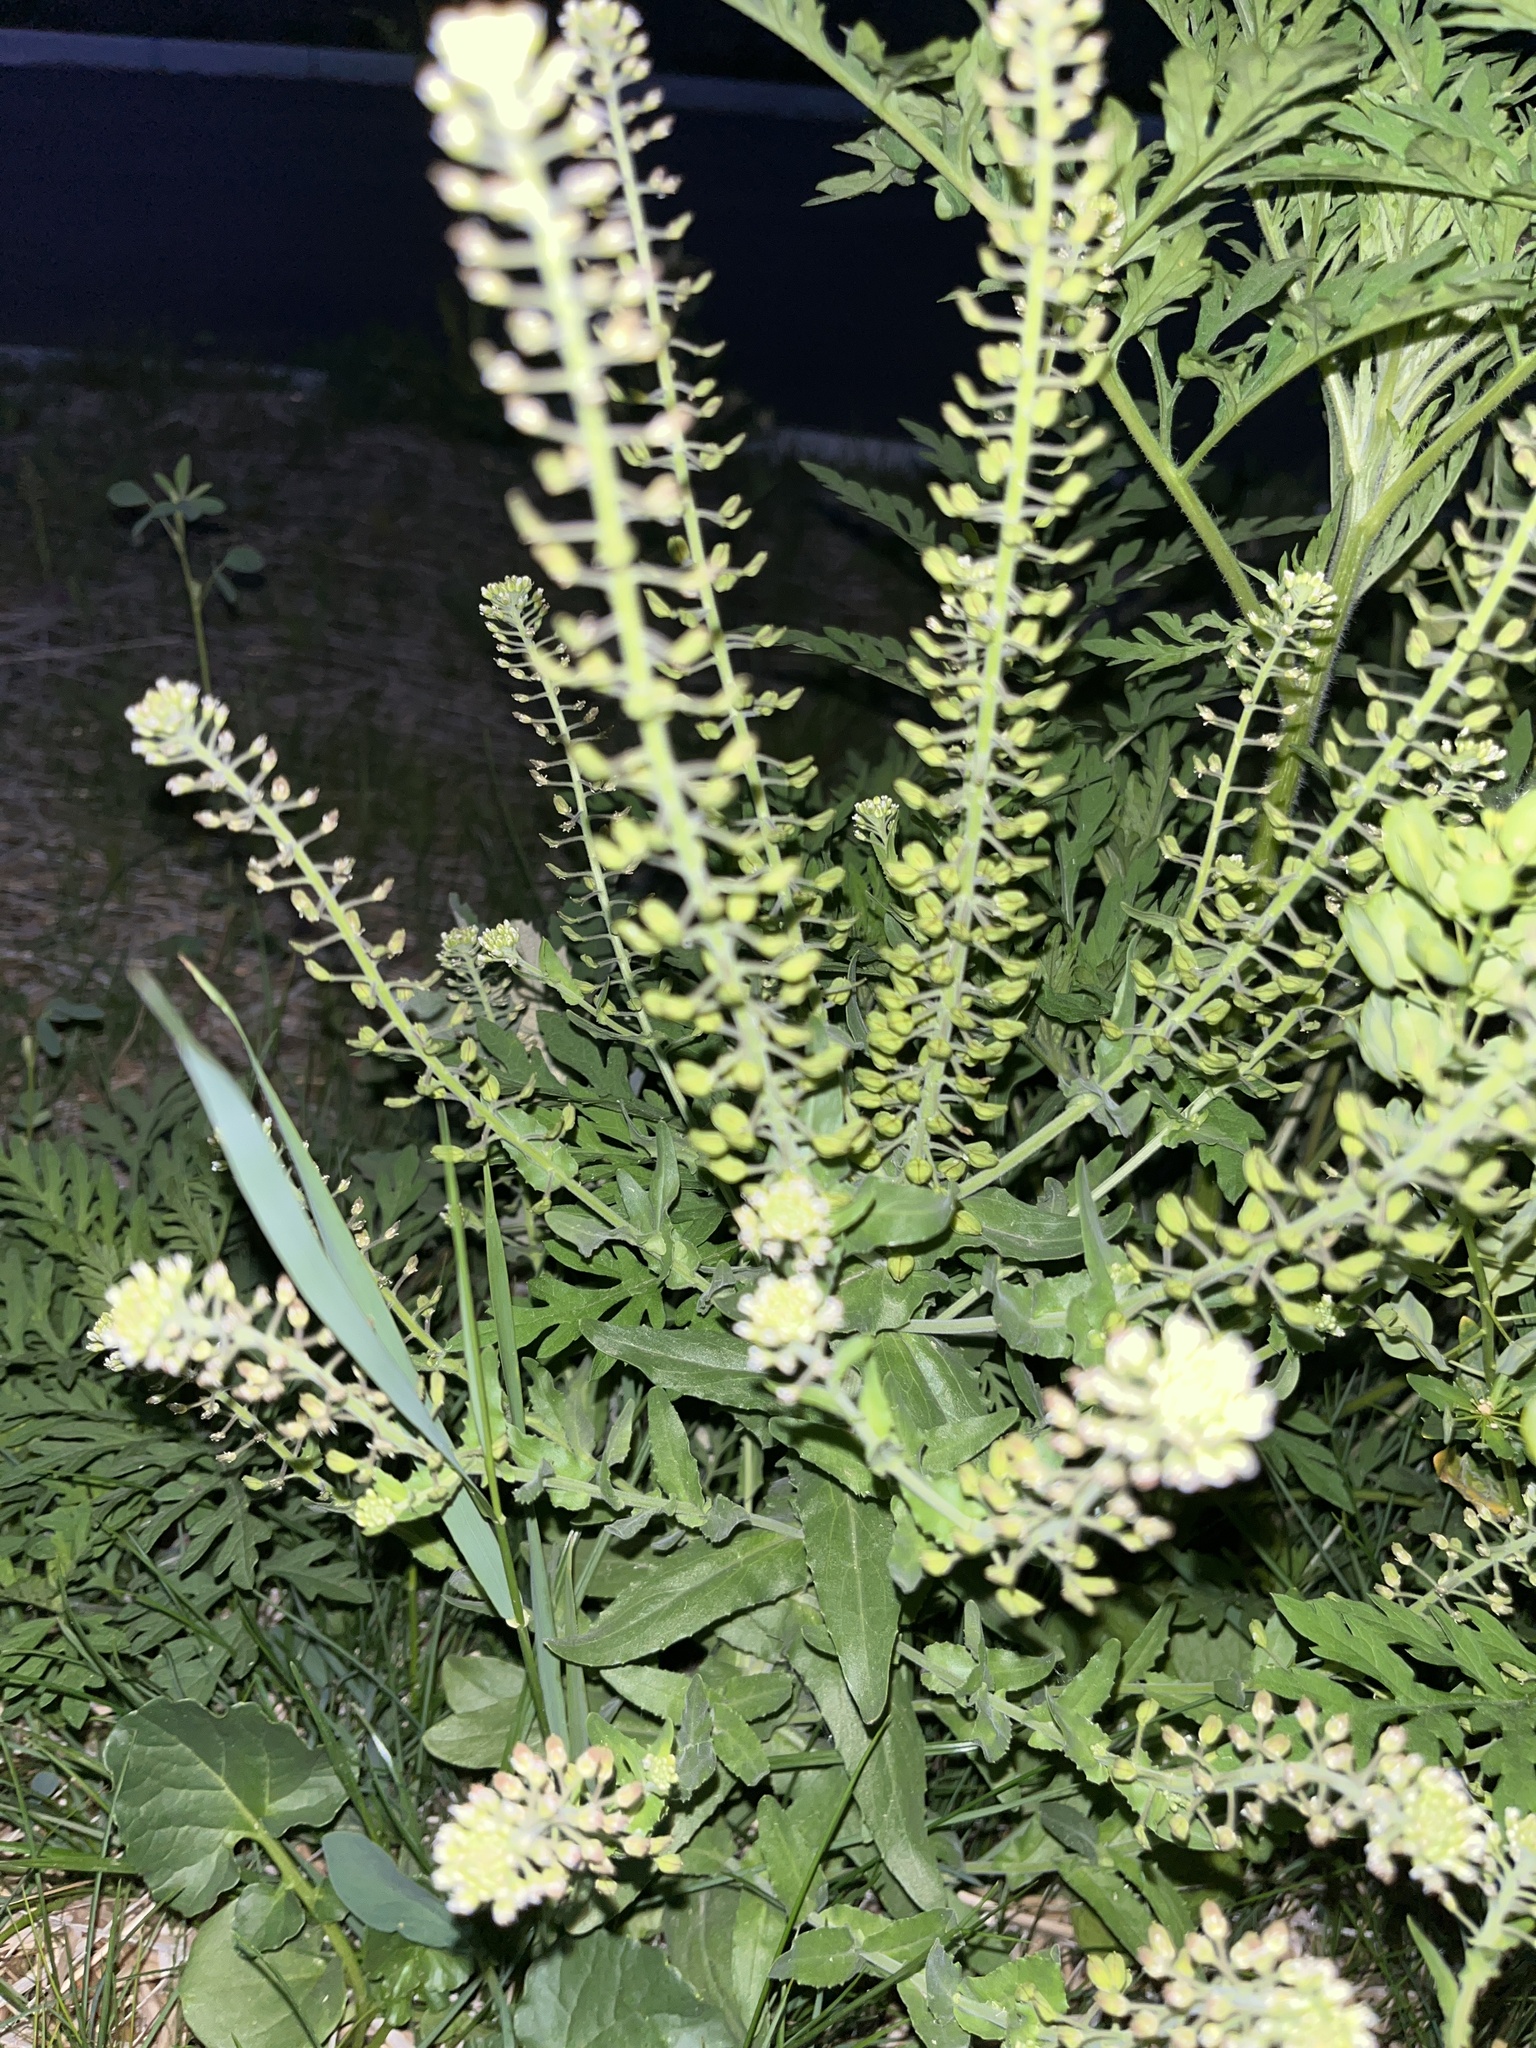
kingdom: Plantae
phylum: Tracheophyta
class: Magnoliopsida
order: Brassicales
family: Brassicaceae
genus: Lepidium
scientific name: Lepidium campestre
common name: Field pepperwort
